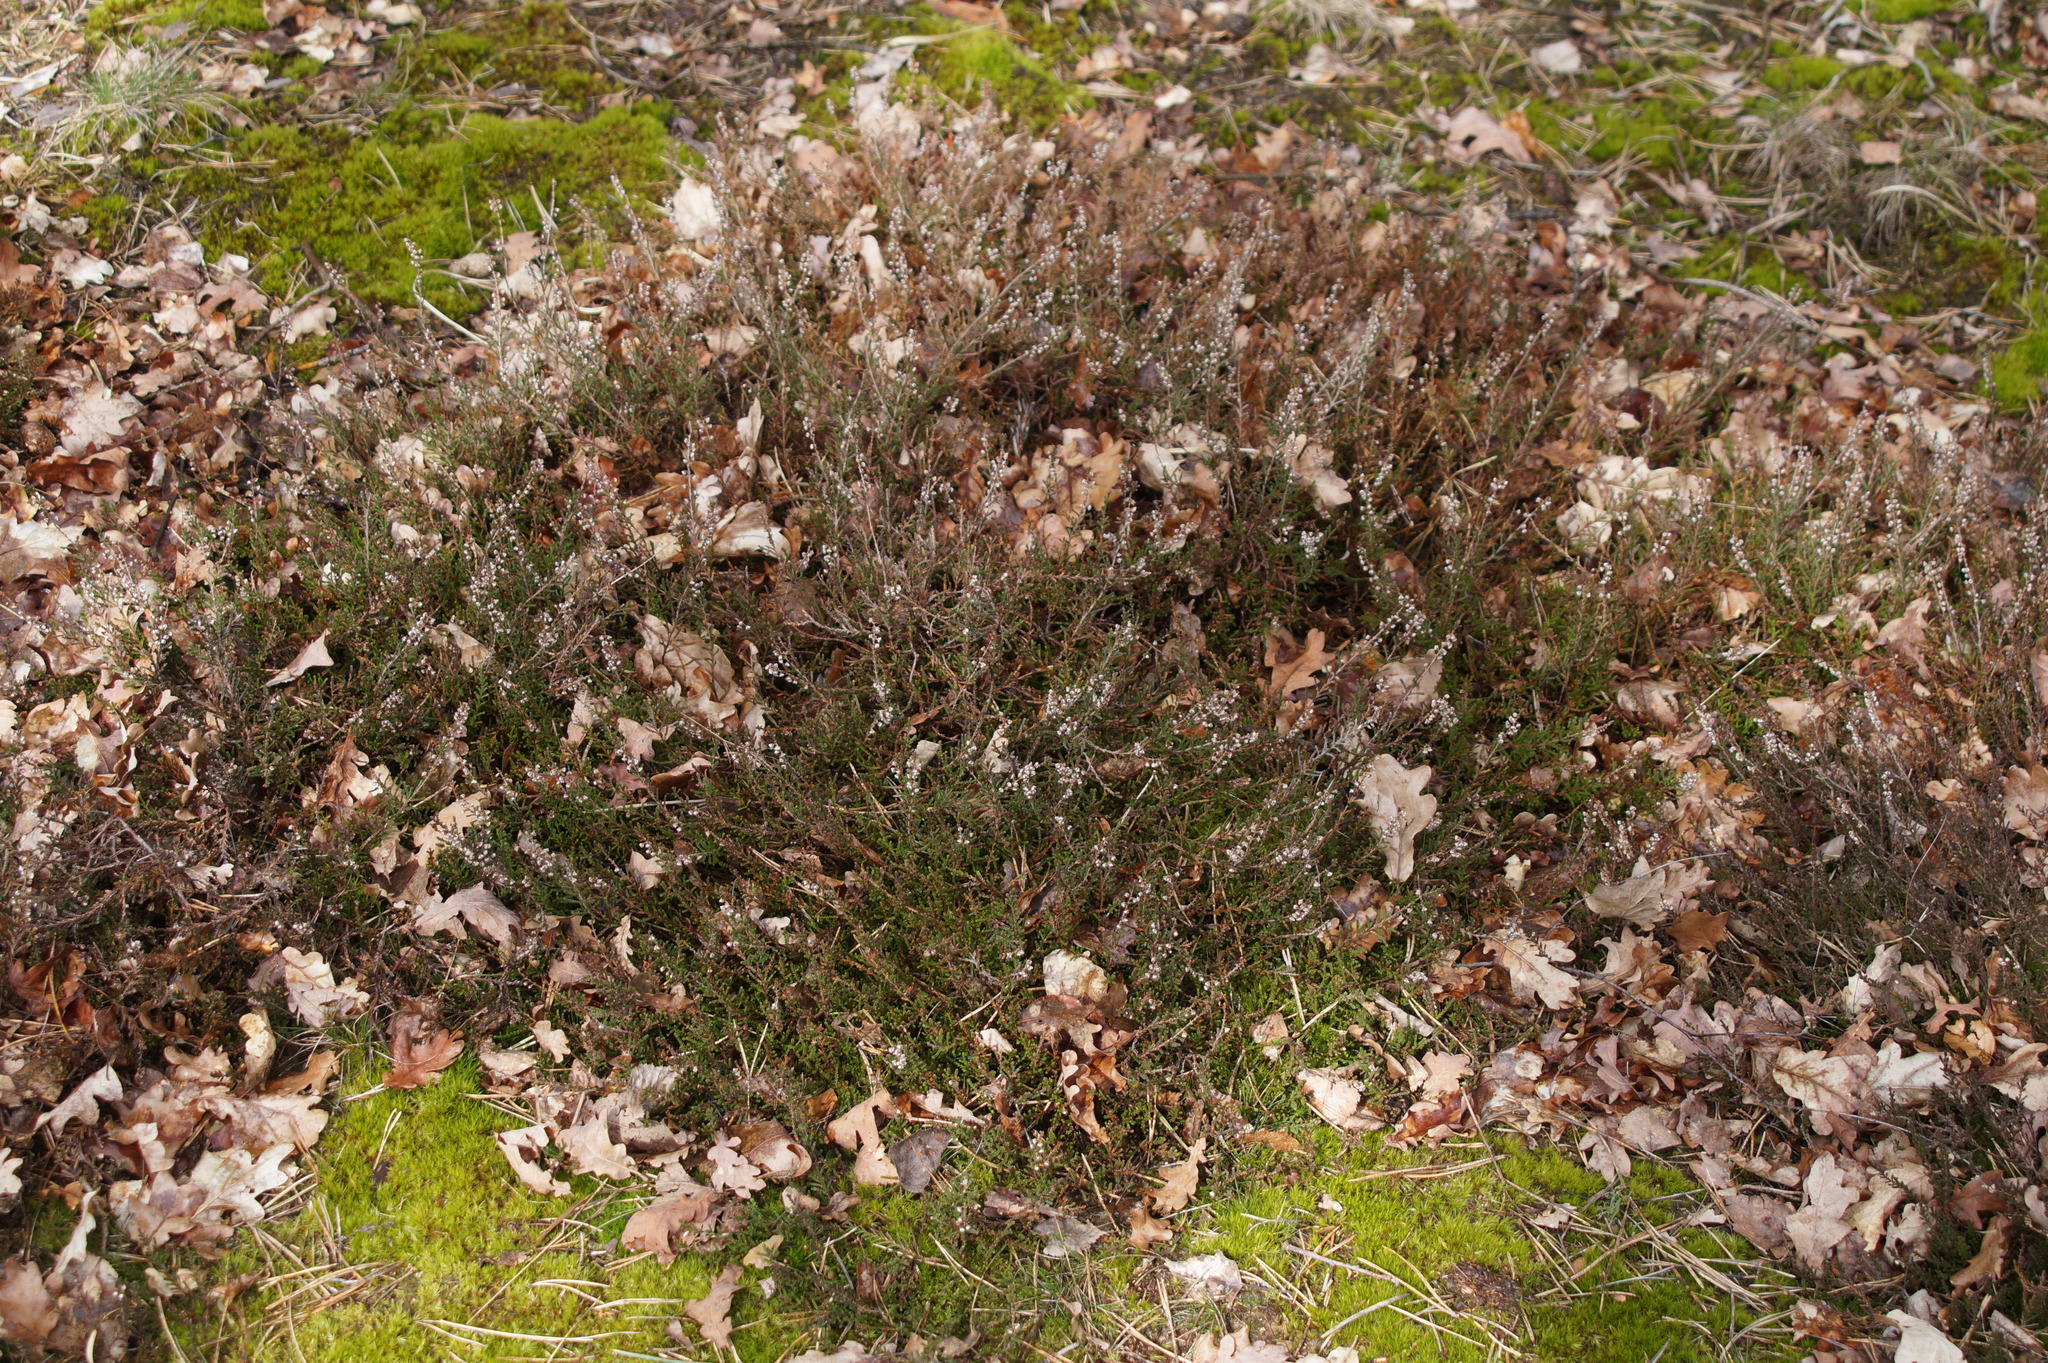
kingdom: Plantae
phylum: Tracheophyta
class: Magnoliopsida
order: Ericales
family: Ericaceae
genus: Calluna
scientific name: Calluna vulgaris
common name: Heather
